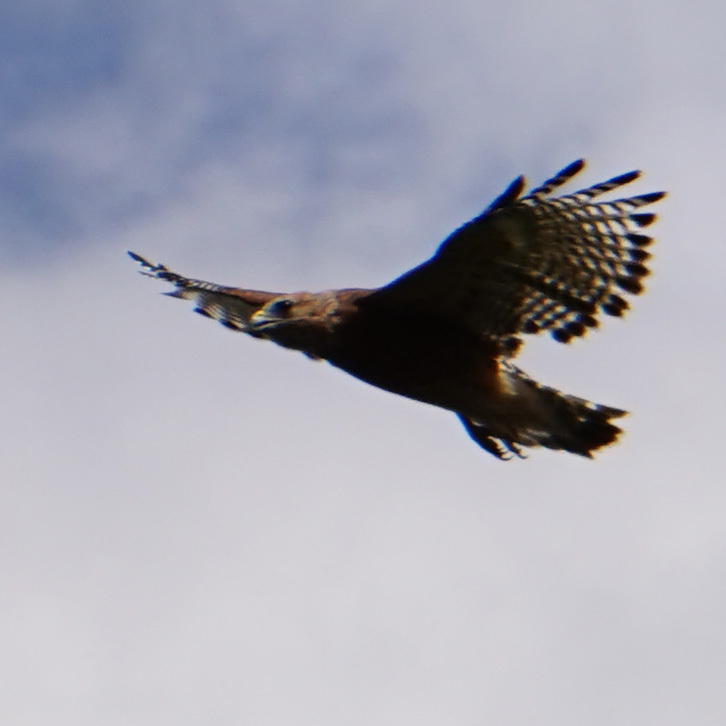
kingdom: Animalia
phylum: Chordata
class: Aves
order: Accipitriformes
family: Accipitridae
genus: Buteo
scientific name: Buteo lineatus
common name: Red-shouldered hawk
